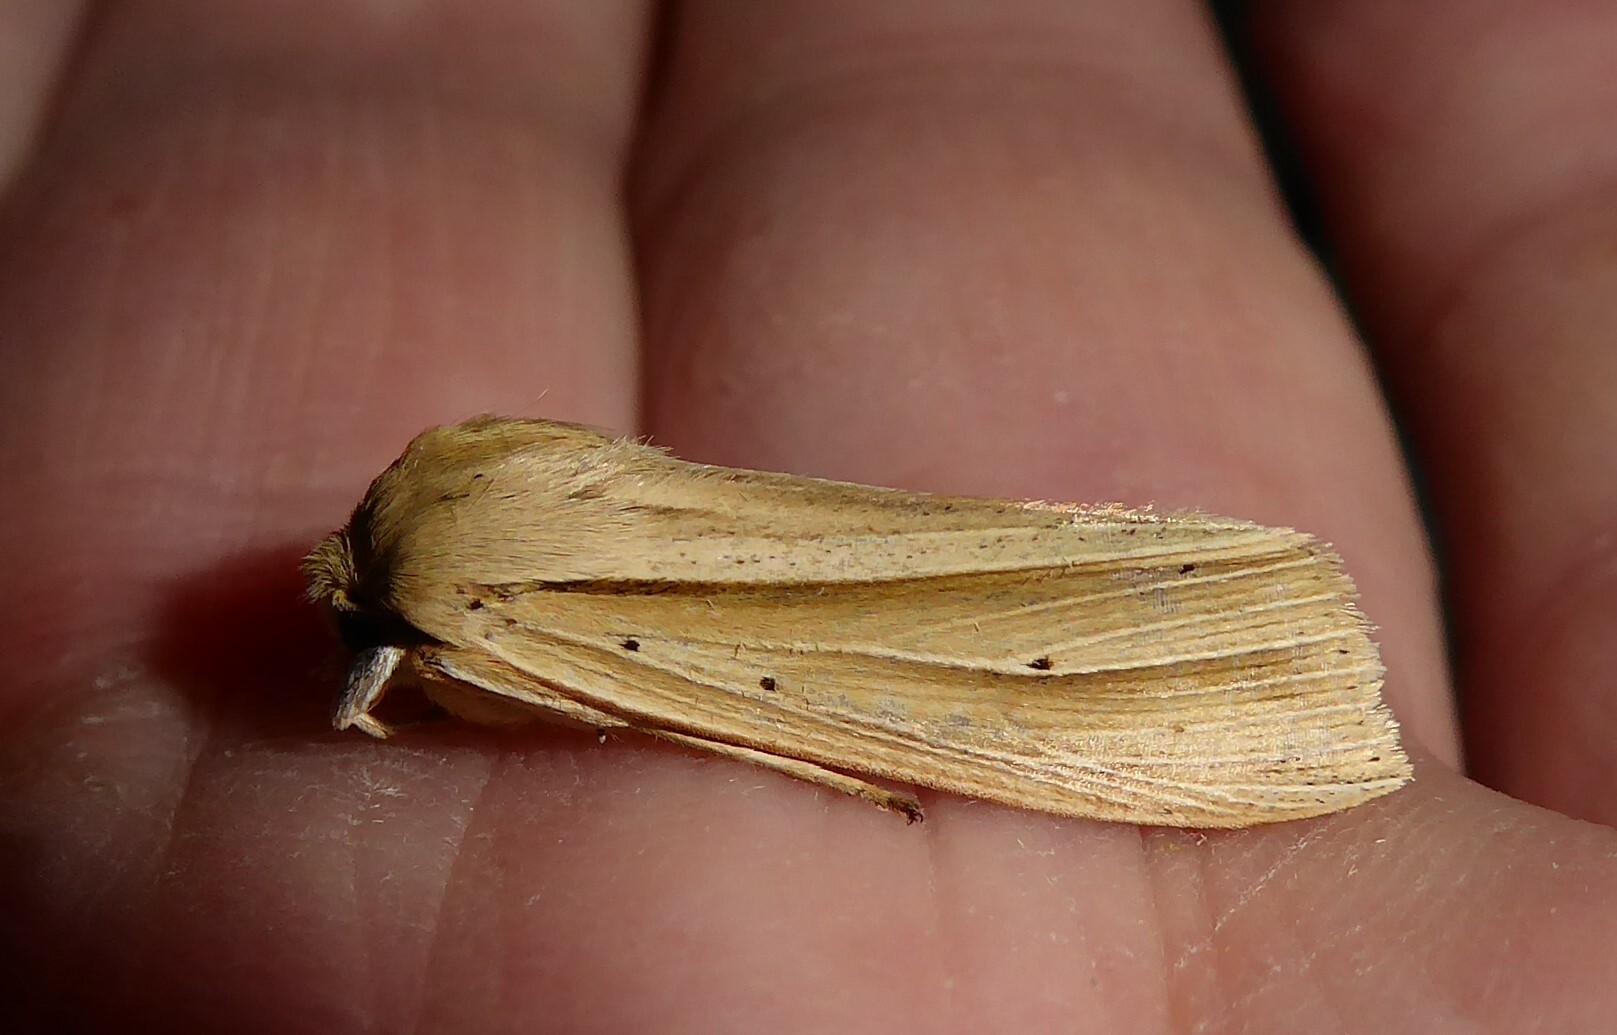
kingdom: Animalia
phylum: Arthropoda
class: Insecta
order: Lepidoptera
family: Noctuidae
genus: Ichneutica
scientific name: Ichneutica sulcana
